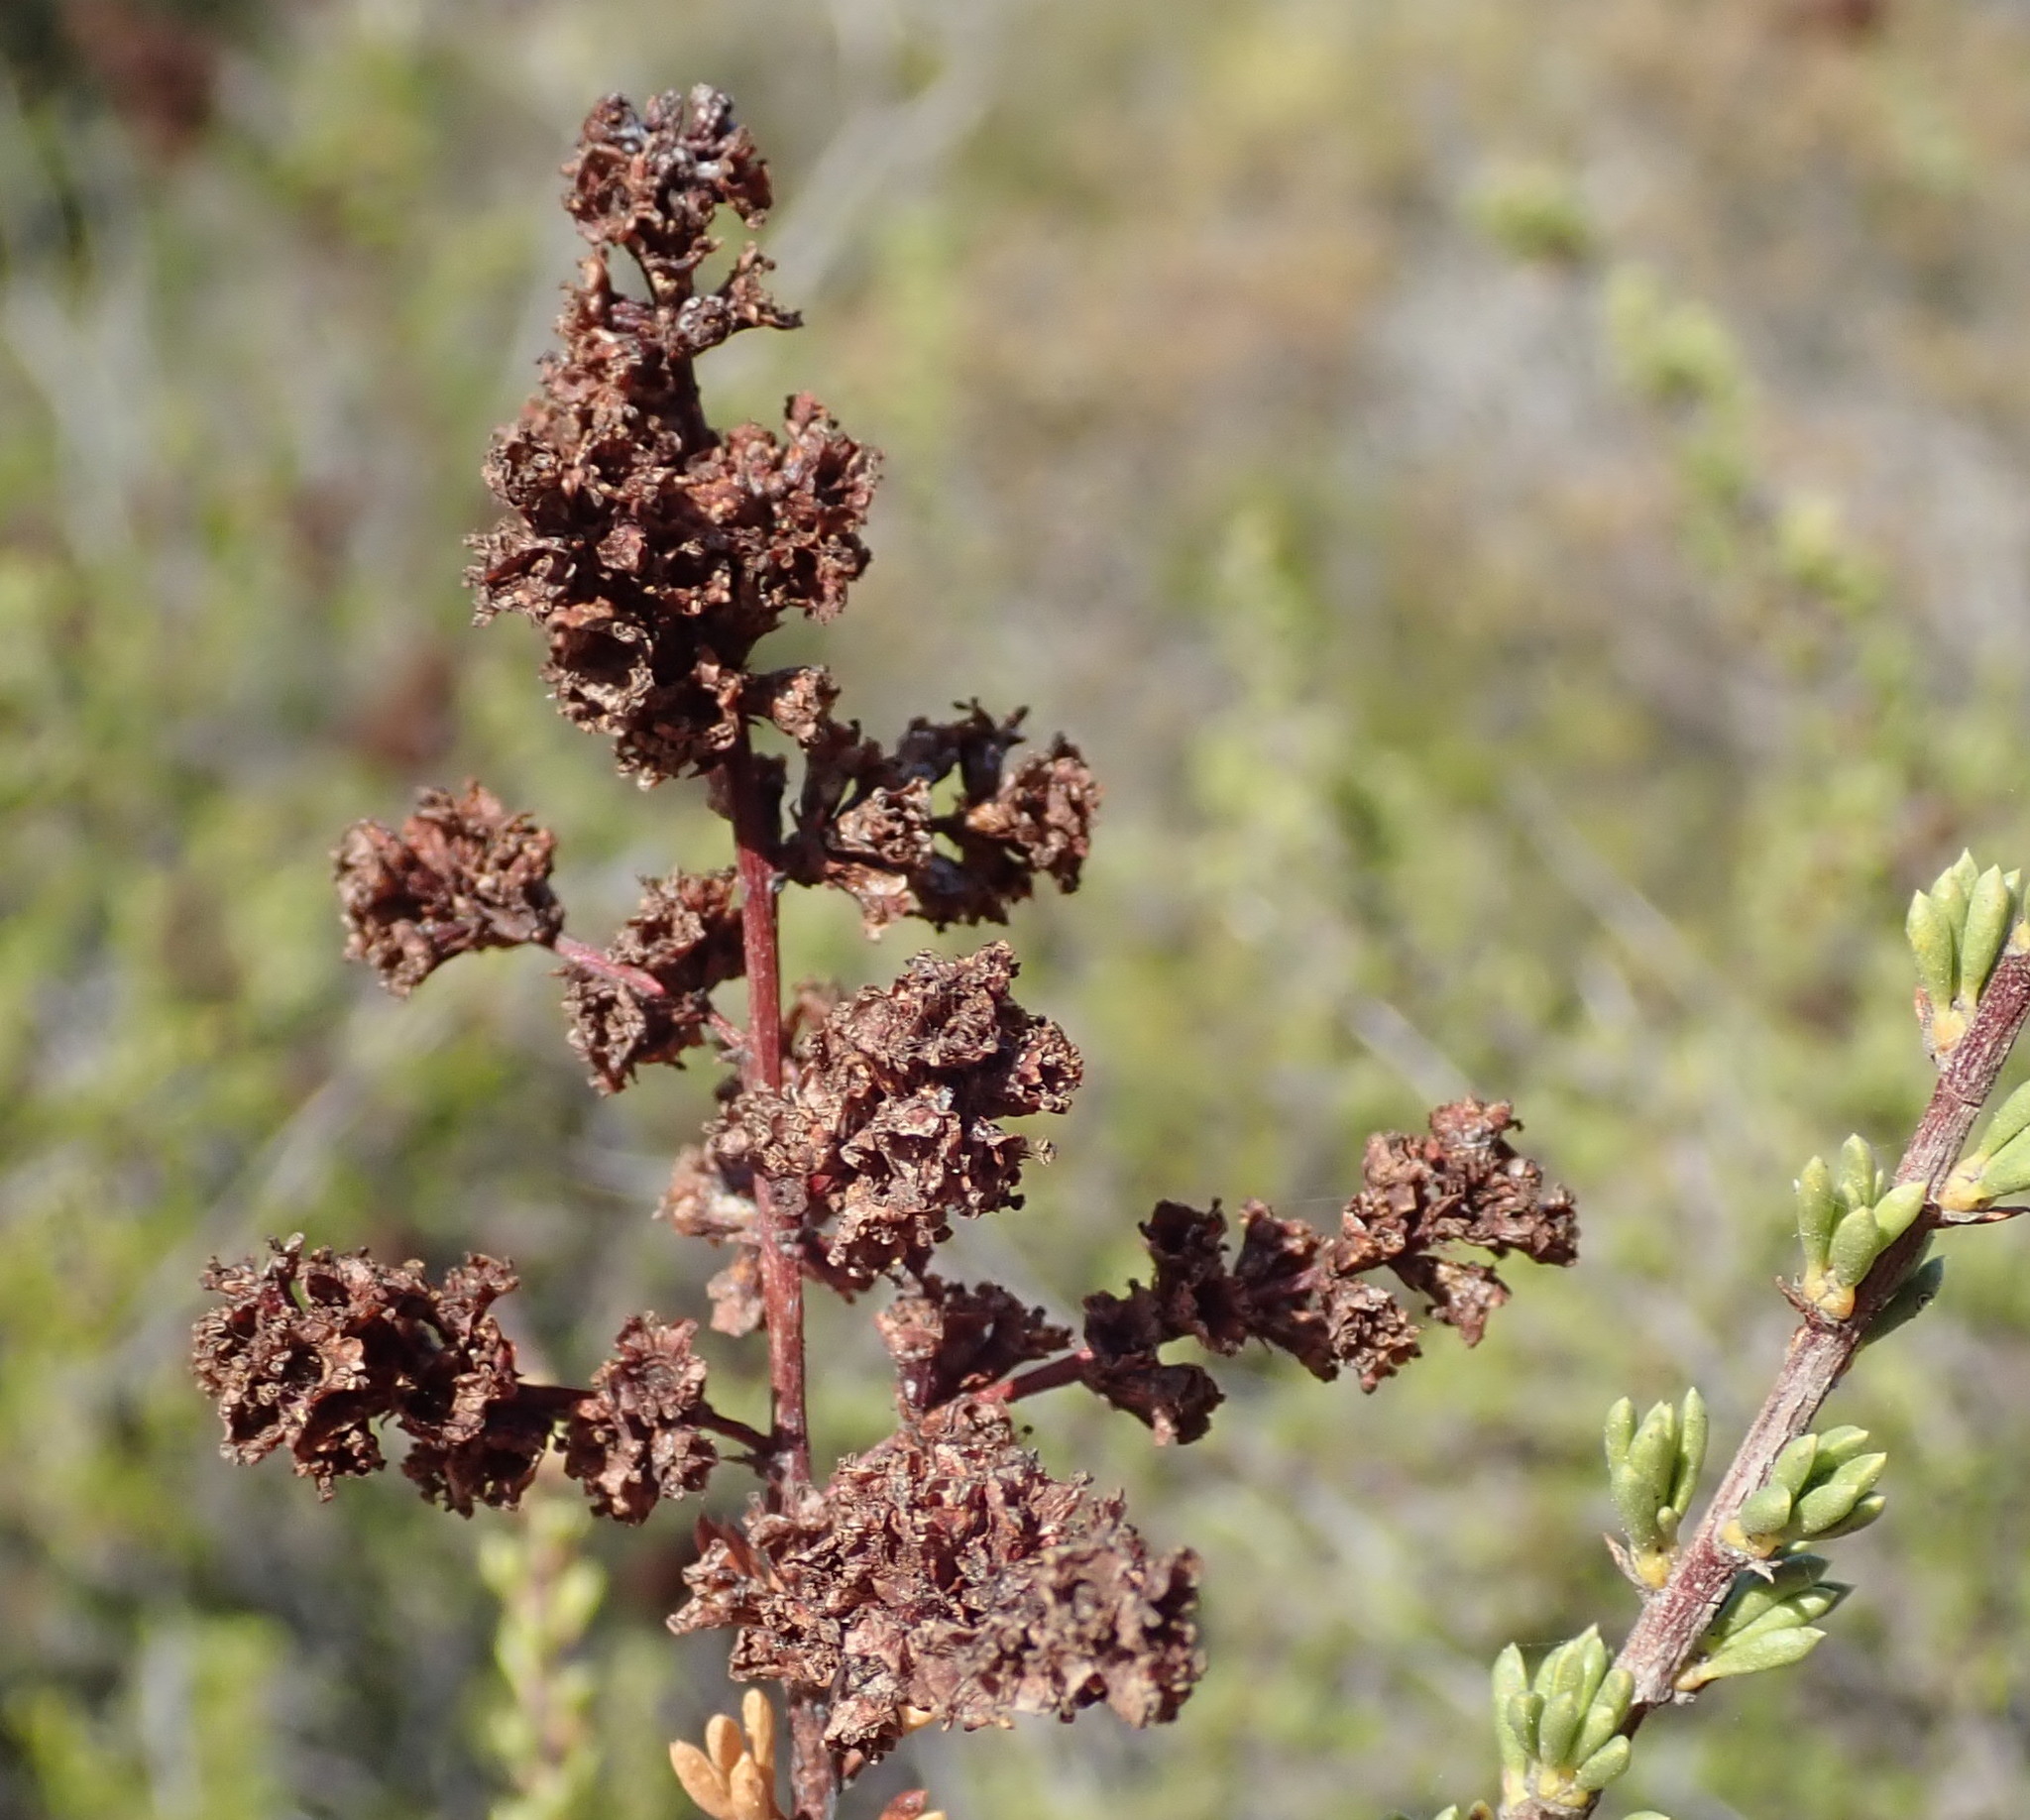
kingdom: Plantae
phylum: Tracheophyta
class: Magnoliopsida
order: Rosales
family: Rosaceae
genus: Adenostoma
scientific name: Adenostoma fasciculatum
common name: Chamise
